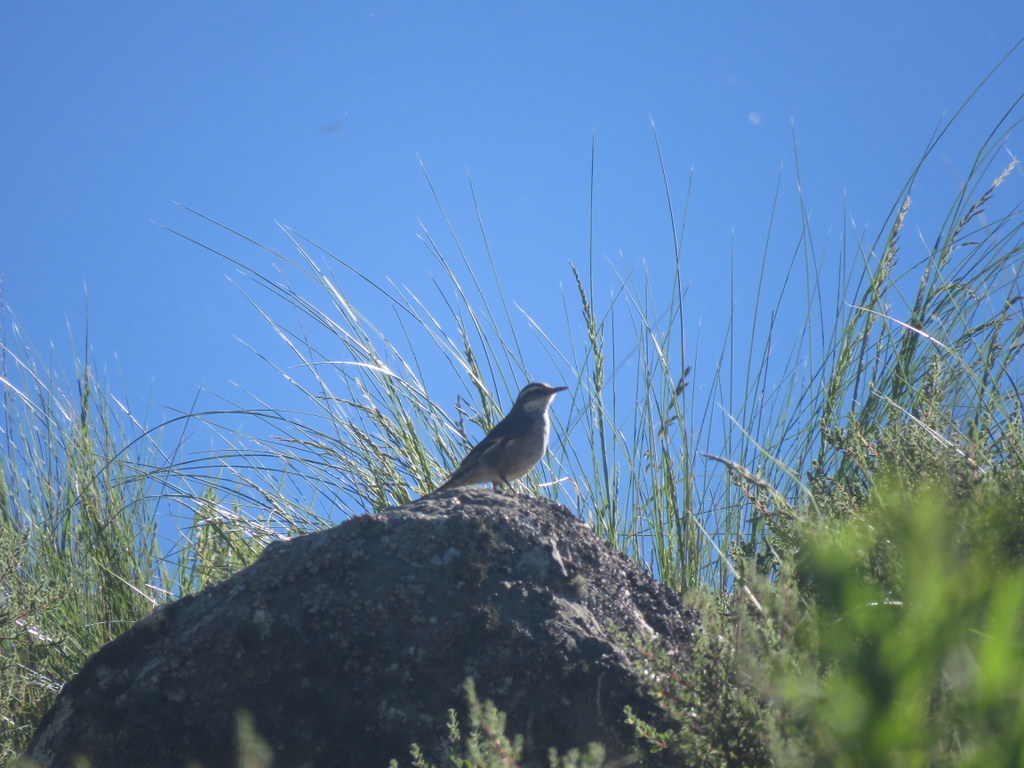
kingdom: Animalia
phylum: Chordata
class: Aves
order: Passeriformes
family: Furnariidae
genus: Cinclodes
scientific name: Cinclodes fuscus
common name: Buff-winged cinclodes
